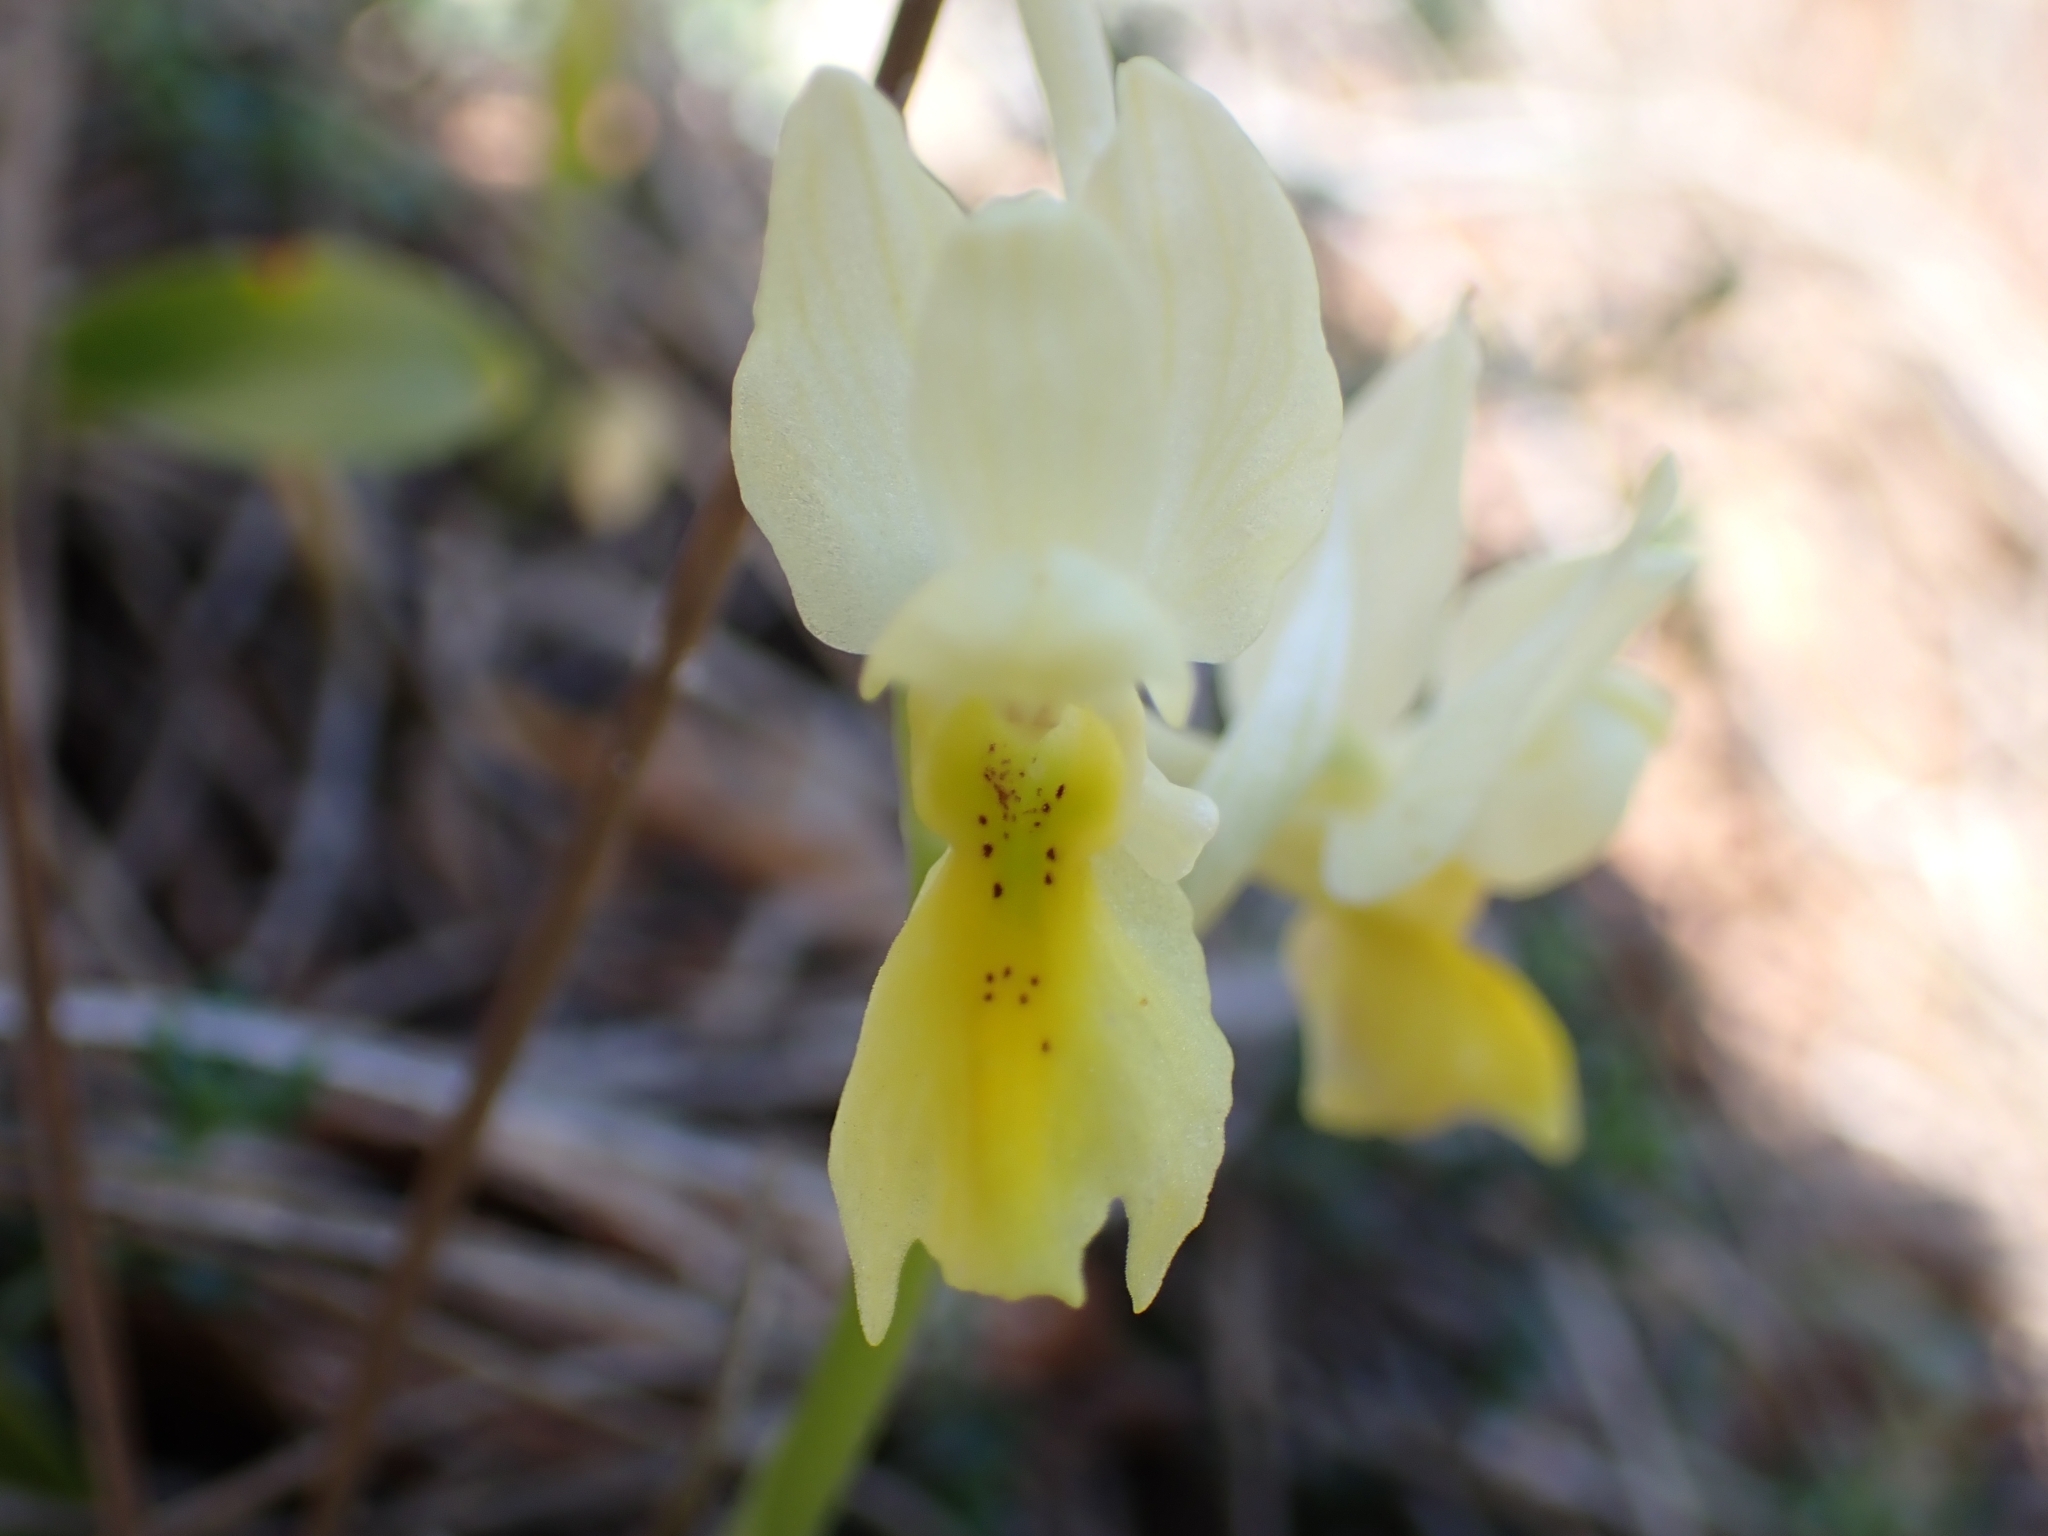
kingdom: Plantae
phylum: Tracheophyta
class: Liliopsida
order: Asparagales
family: Orchidaceae
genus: Orchis
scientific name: Orchis pauciflora
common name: Few-flowered orchid
